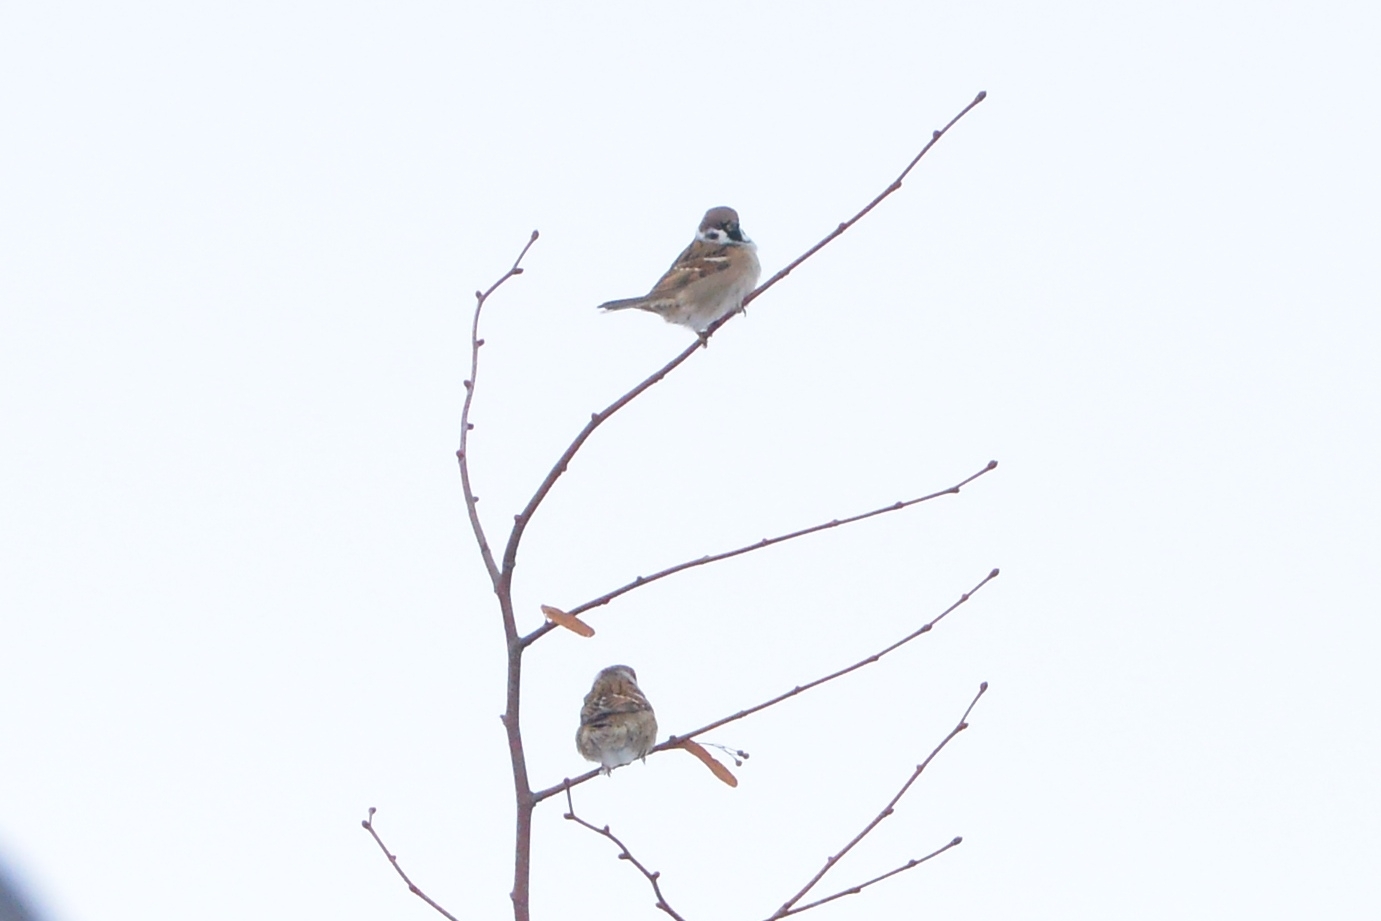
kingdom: Animalia
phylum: Chordata
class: Aves
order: Passeriformes
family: Passeridae
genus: Passer
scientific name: Passer montanus
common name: Eurasian tree sparrow
